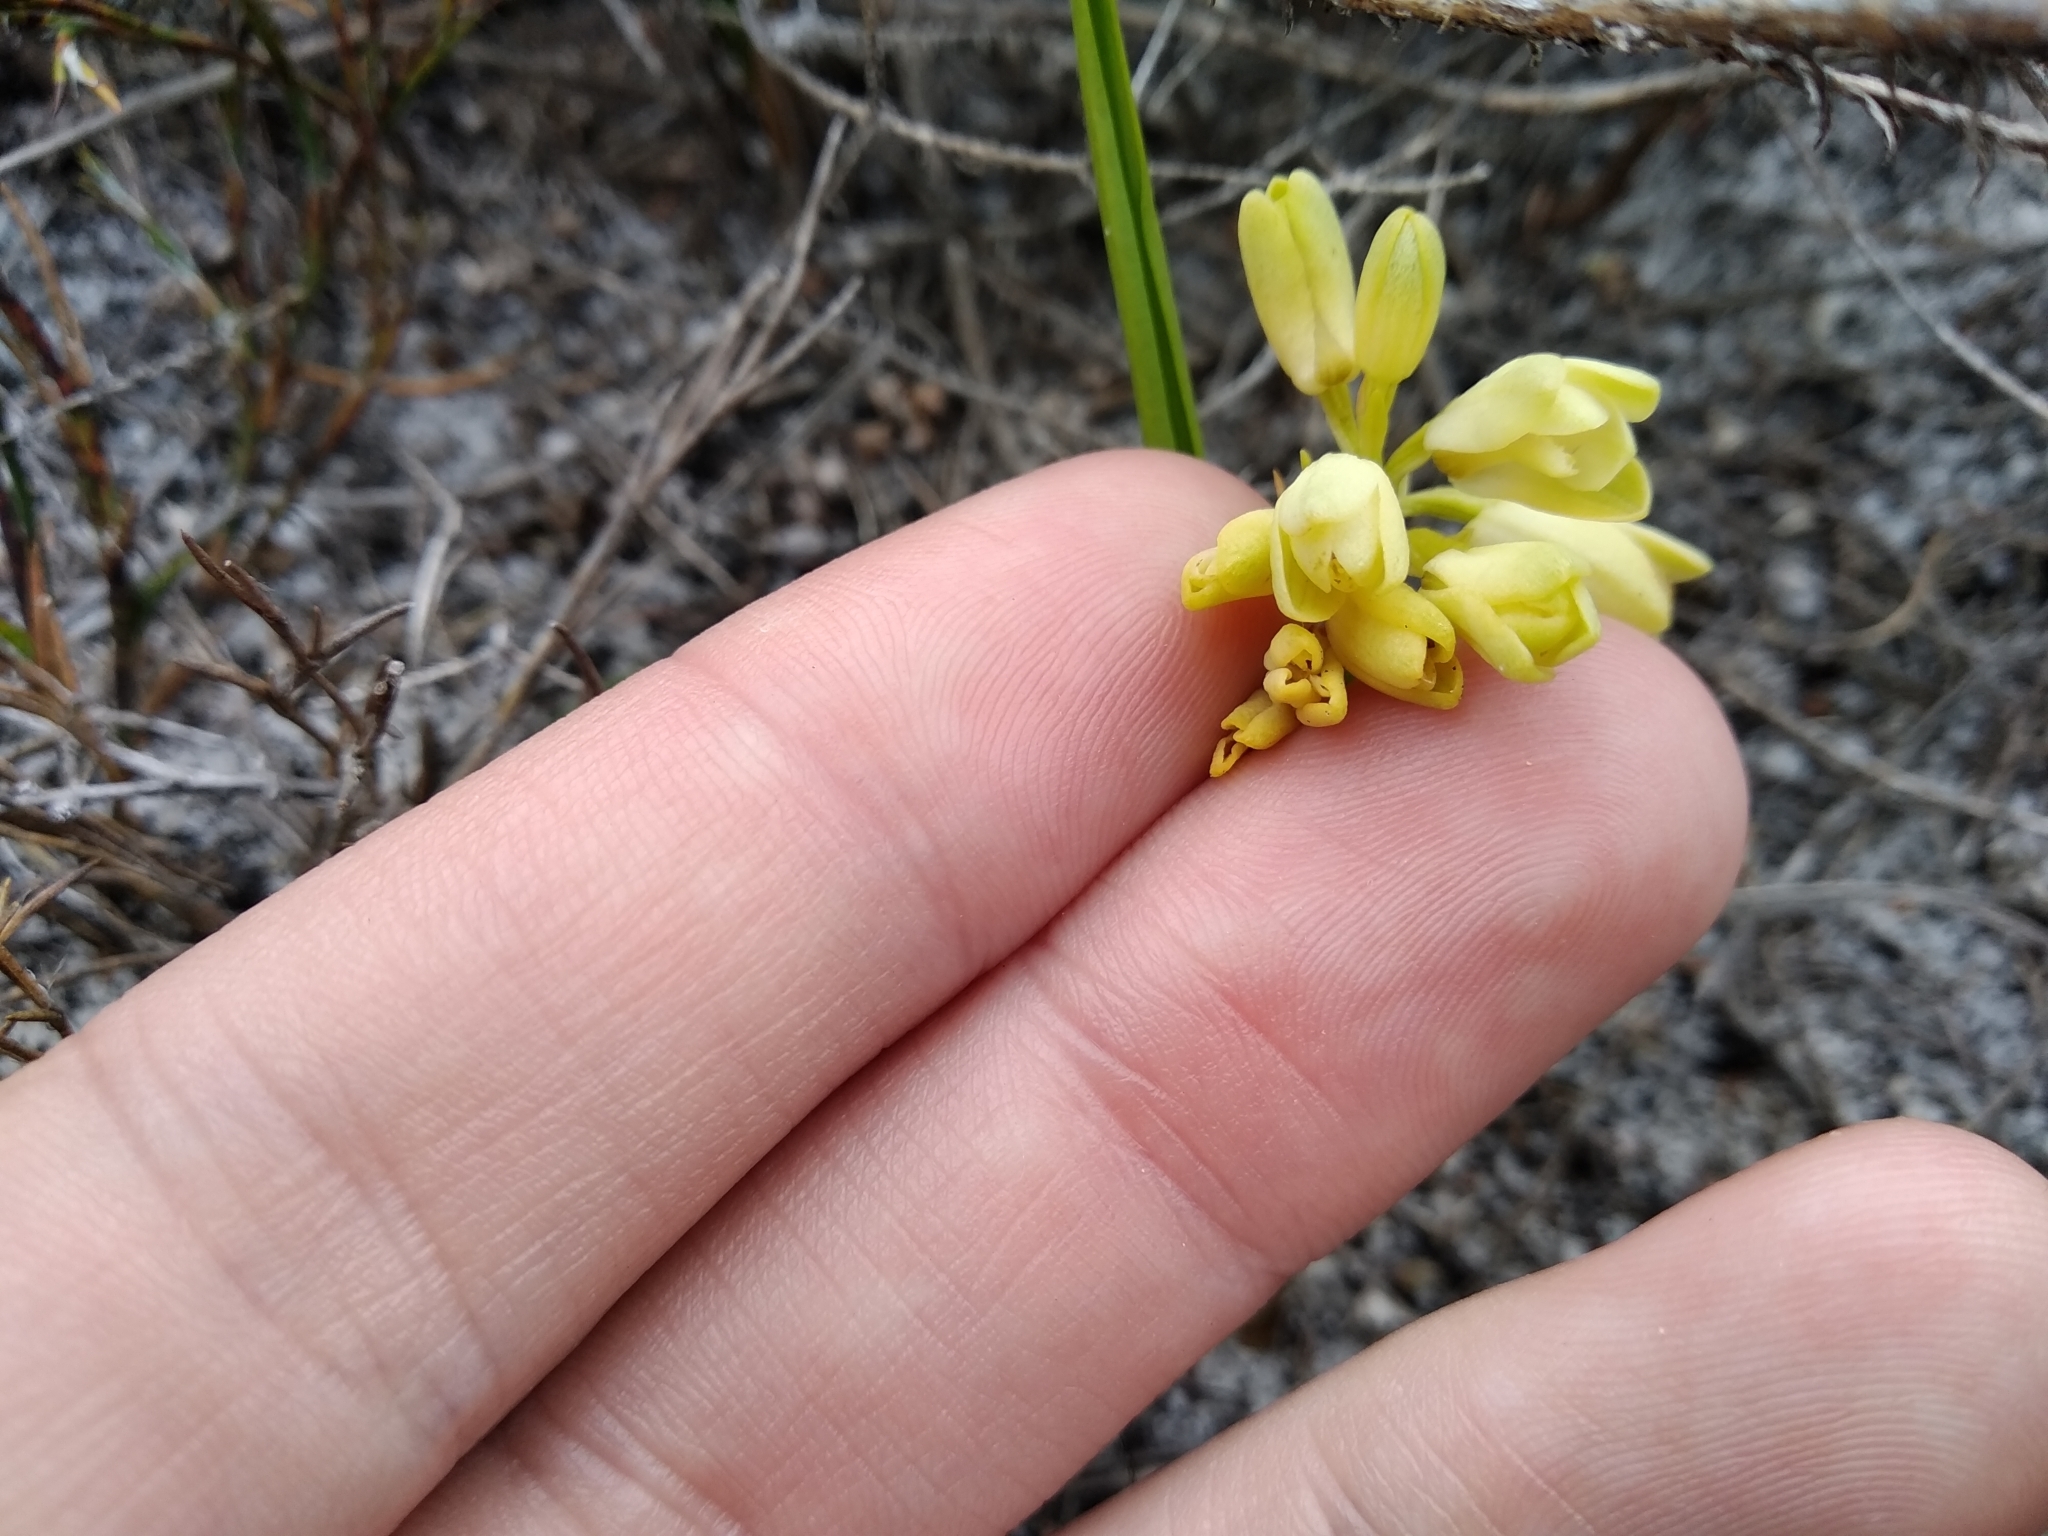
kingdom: Plantae
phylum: Tracheophyta
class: Liliopsida
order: Asparagales
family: Orchidaceae
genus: Eulophia
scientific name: Eulophia aculeata
